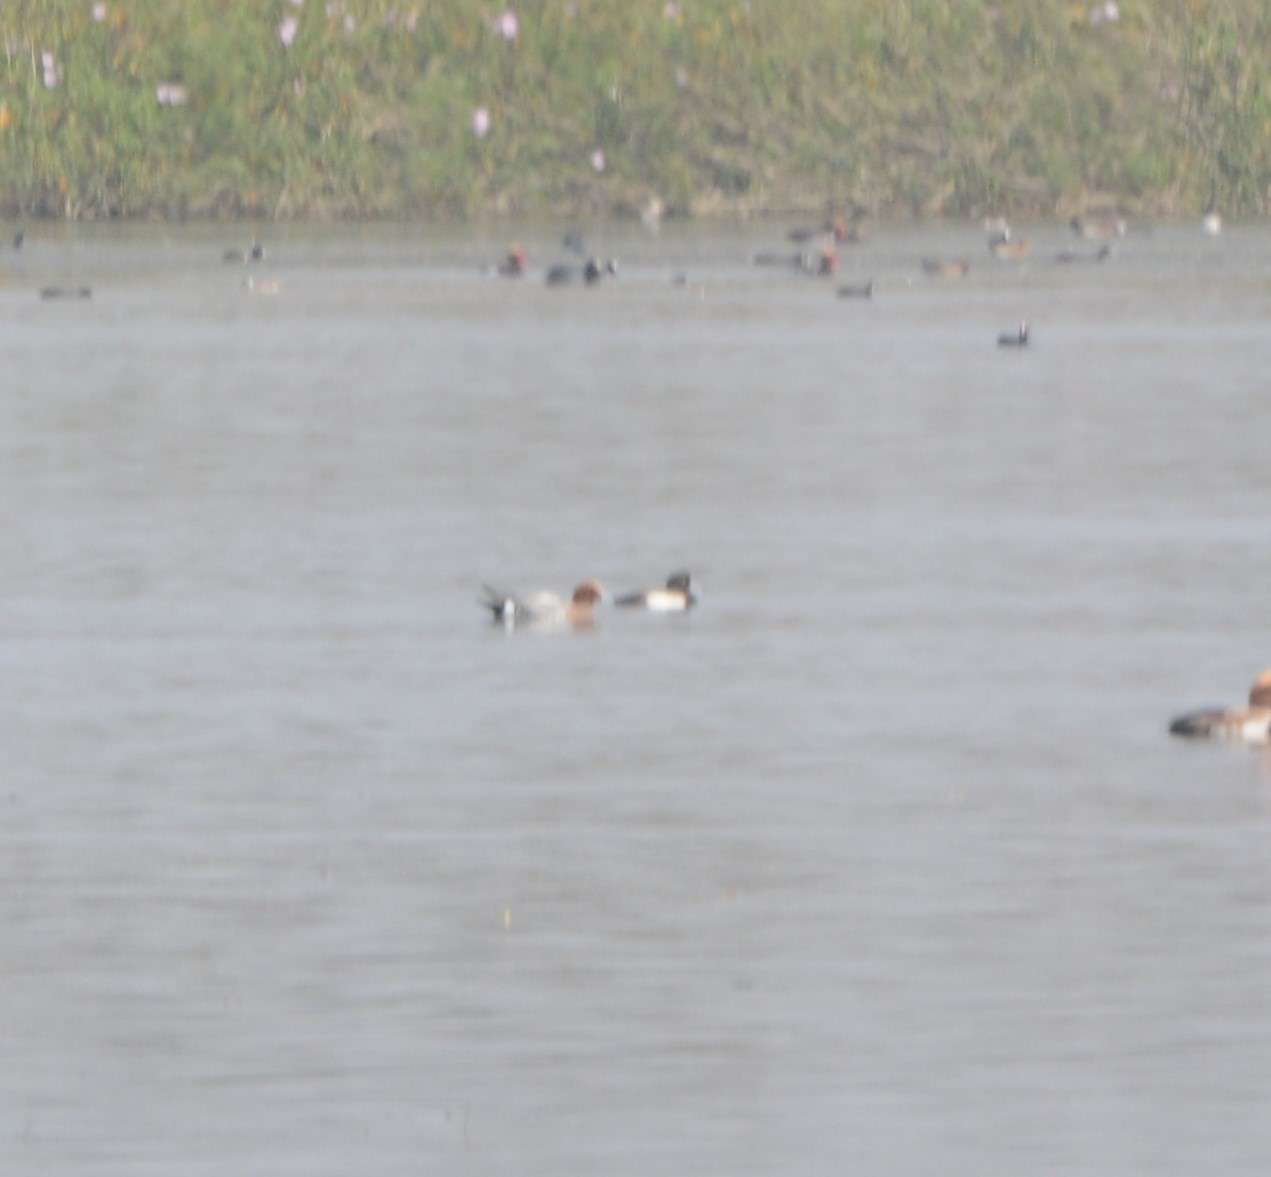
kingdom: Animalia
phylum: Chordata
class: Aves
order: Anseriformes
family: Anatidae
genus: Aythya
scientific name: Aythya fuligula
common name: Tufted duck
